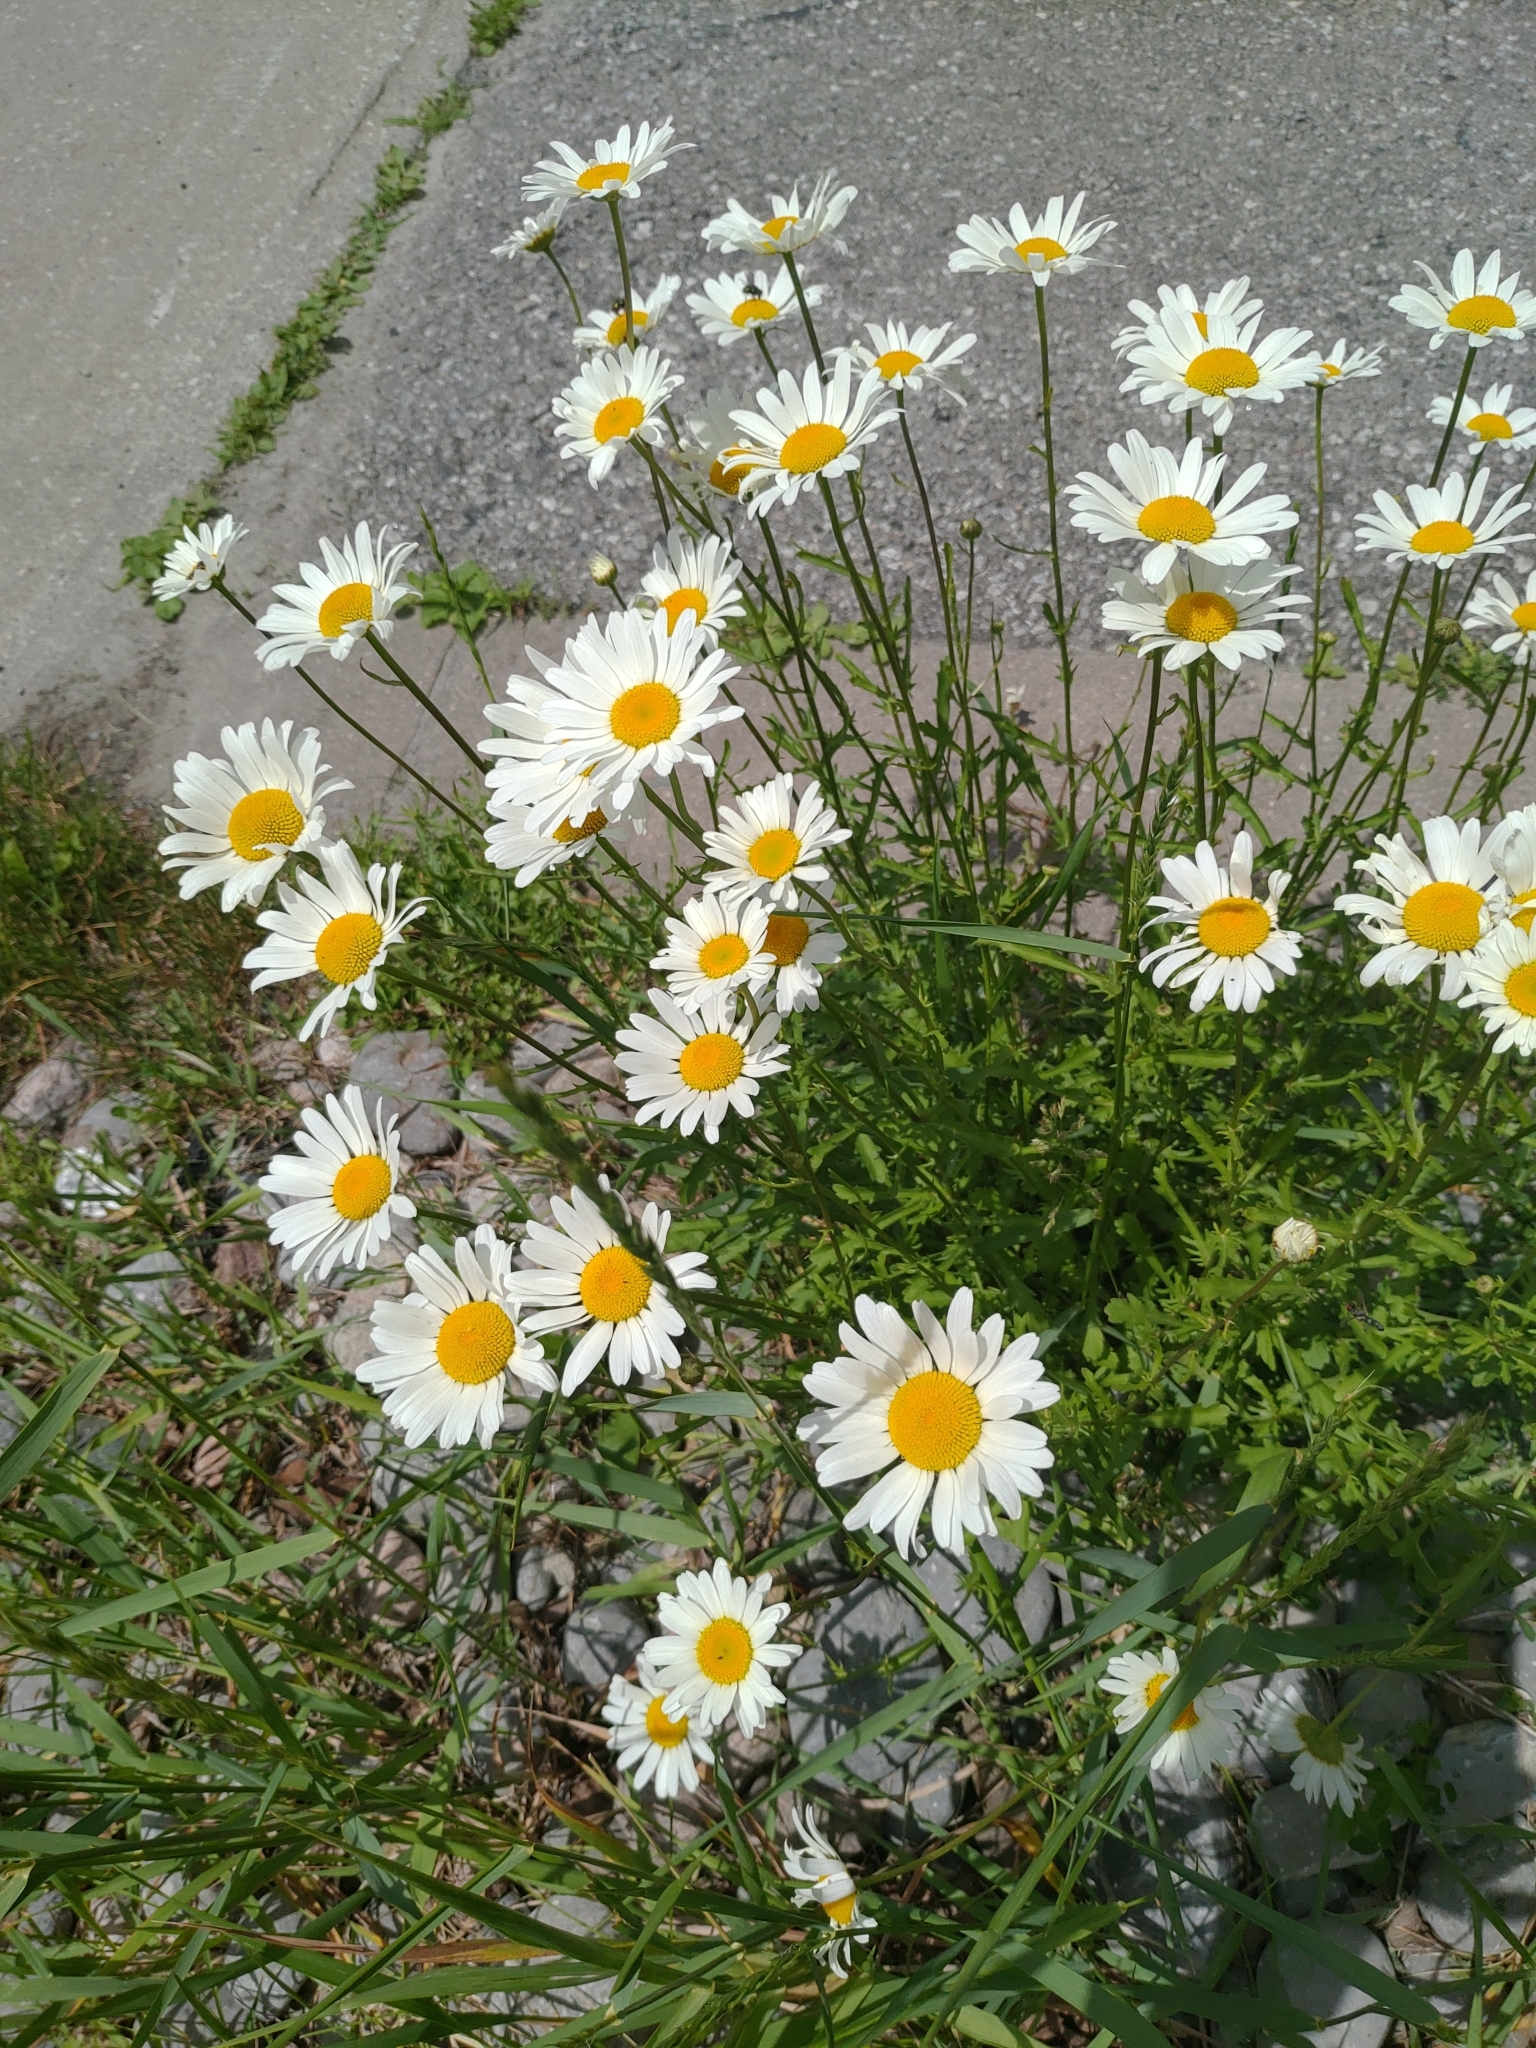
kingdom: Plantae
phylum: Tracheophyta
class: Magnoliopsida
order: Asterales
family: Asteraceae
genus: Leucanthemum
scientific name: Leucanthemum vulgare
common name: Oxeye daisy
